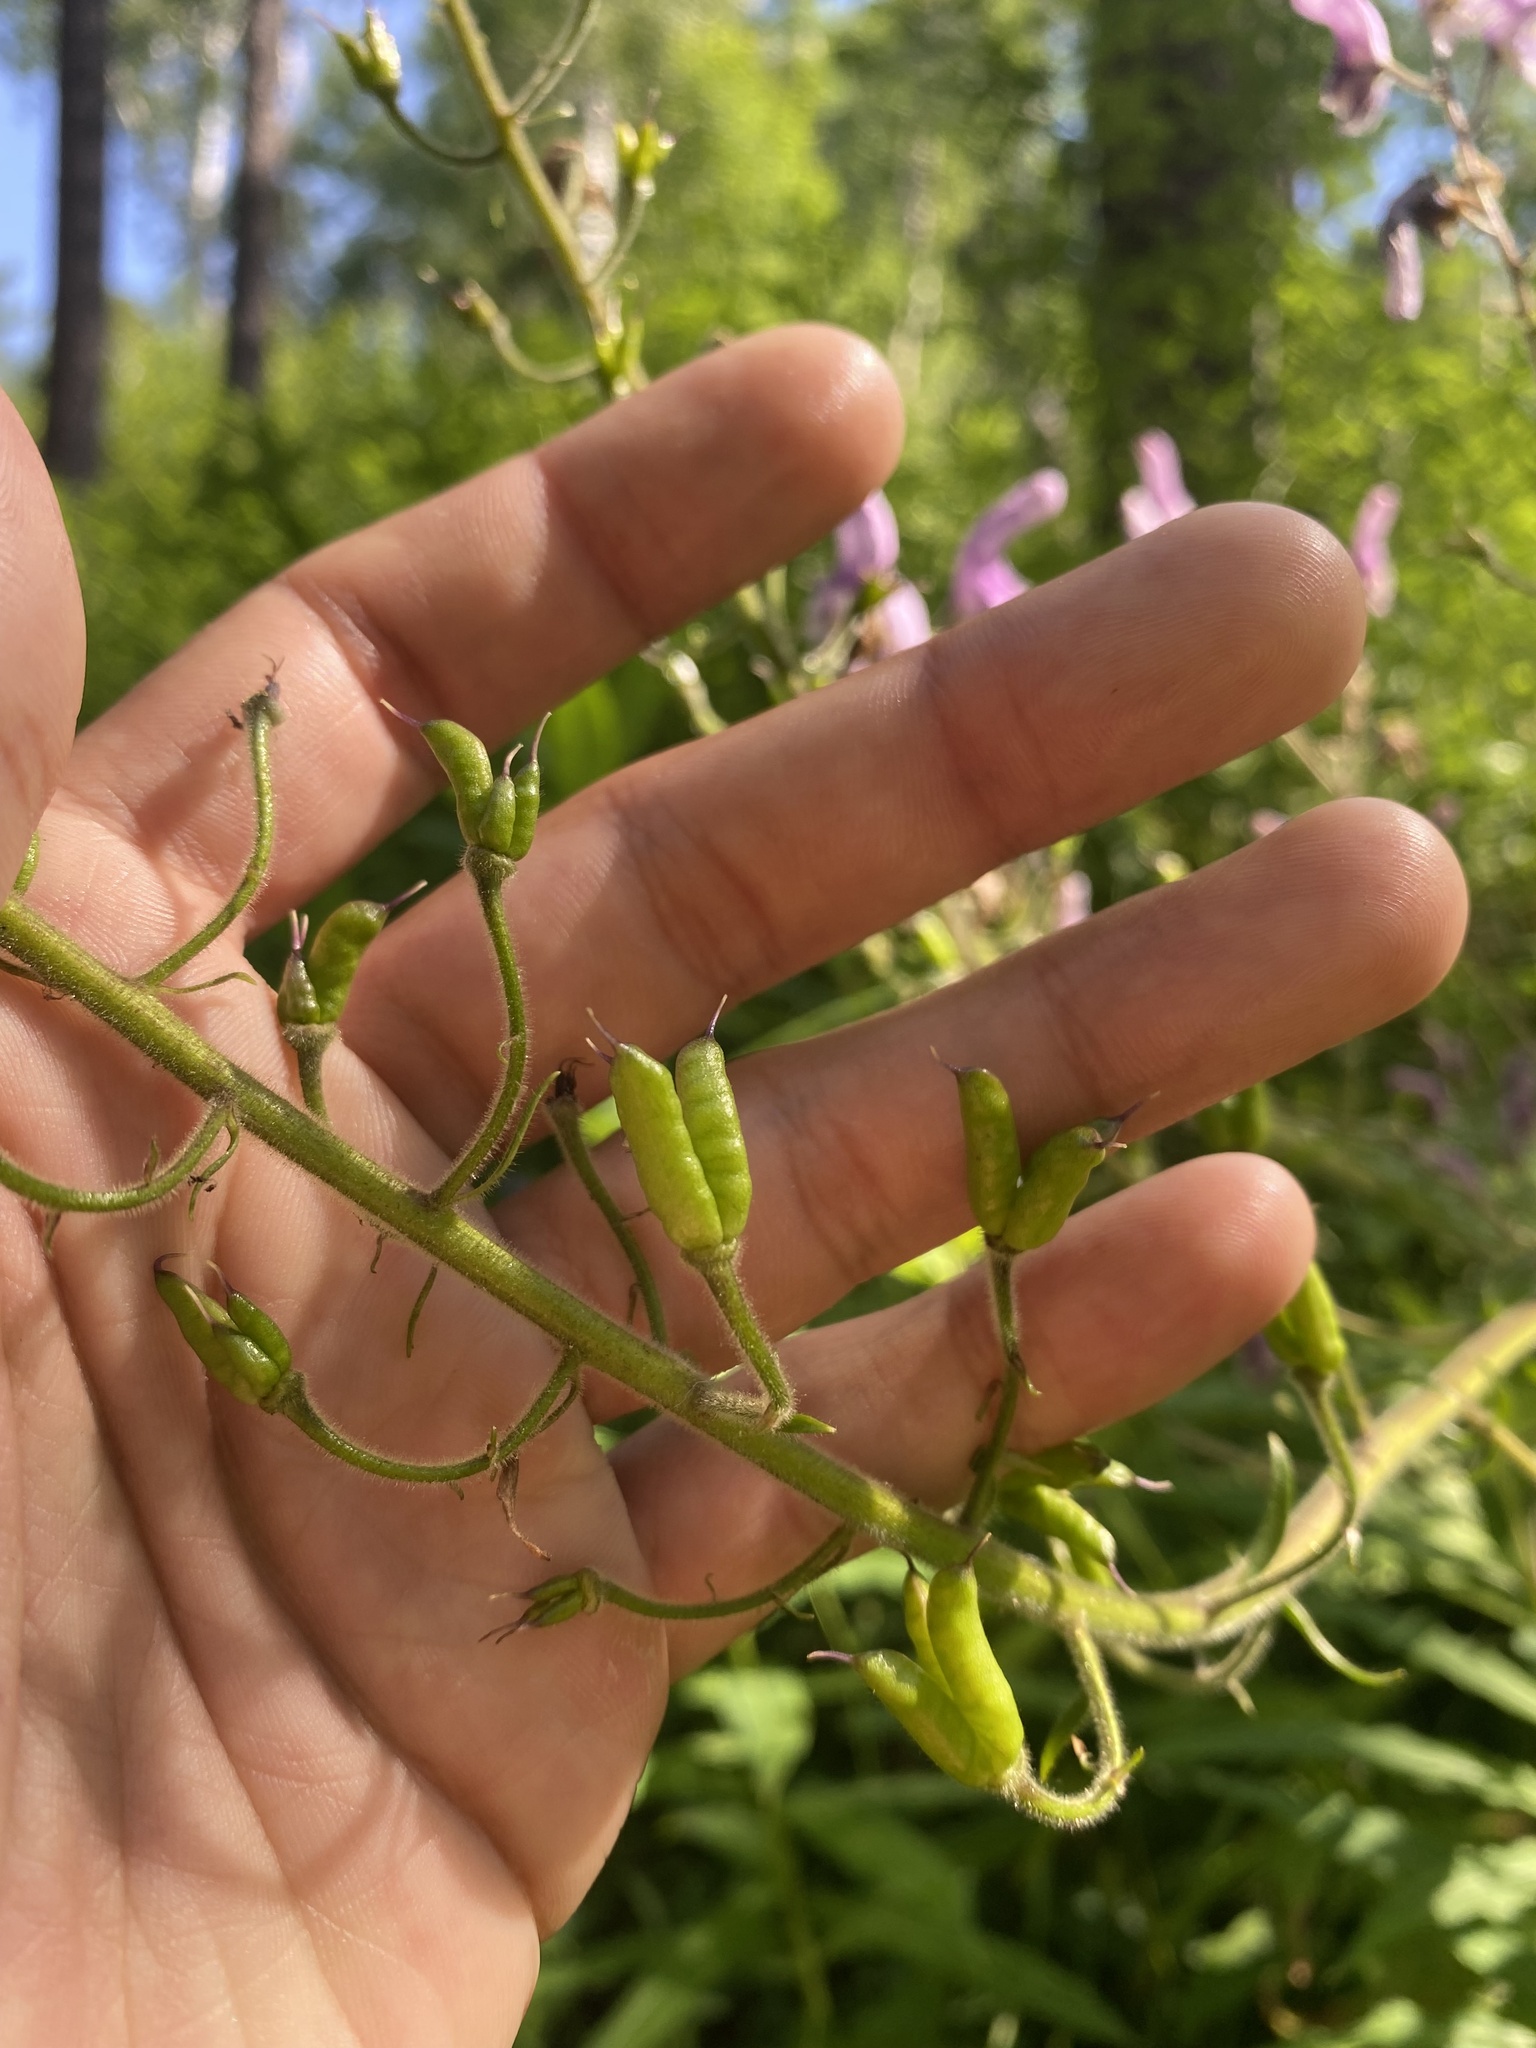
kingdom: Plantae
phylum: Tracheophyta
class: Magnoliopsida
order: Ranunculales
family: Ranunculaceae
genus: Aconitum
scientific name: Aconitum septentrionale
